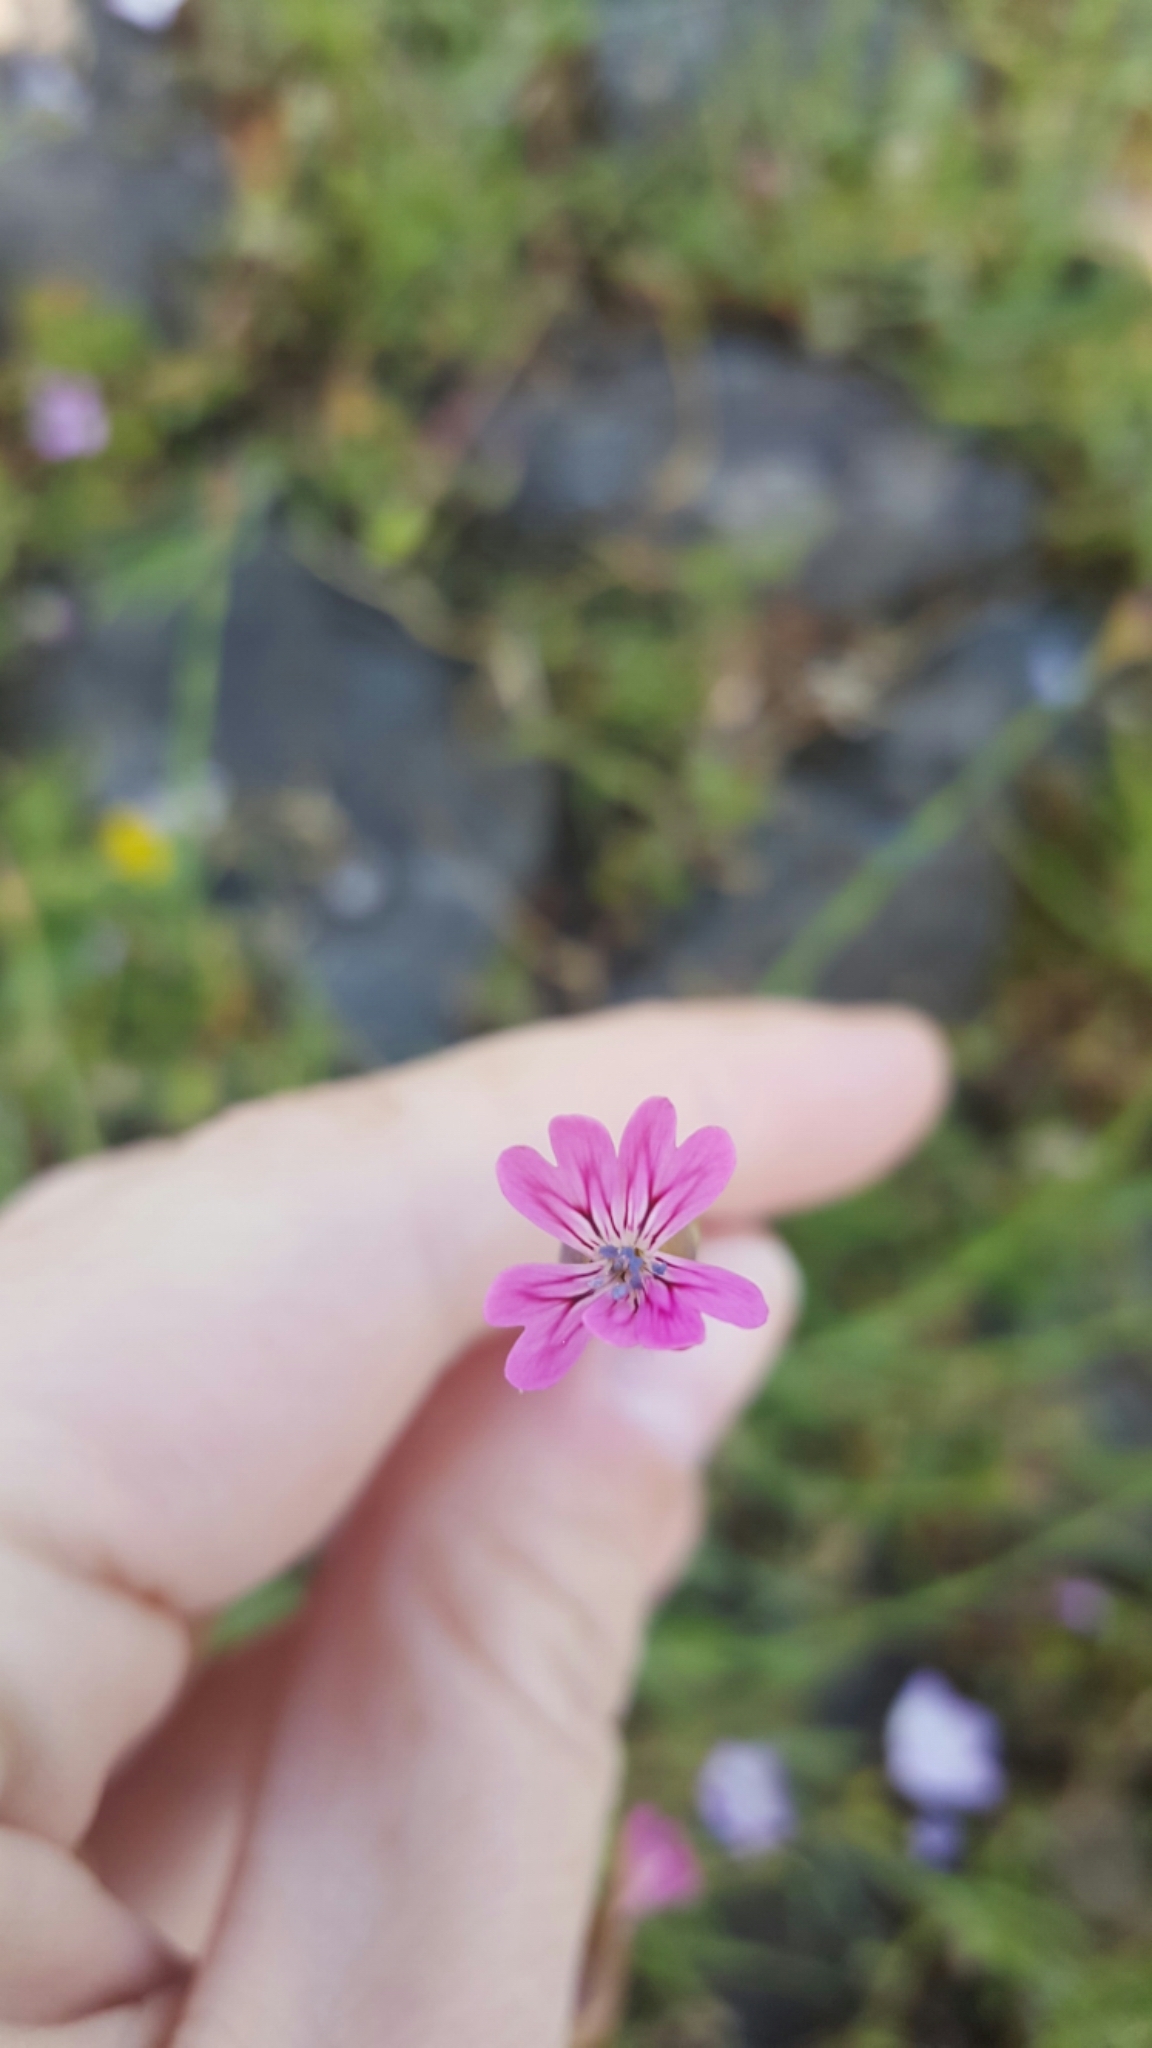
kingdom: Plantae
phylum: Tracheophyta
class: Magnoliopsida
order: Caryophyllales
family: Caryophyllaceae
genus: Petrorhagia
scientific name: Petrorhagia dubia
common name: Hairypink
